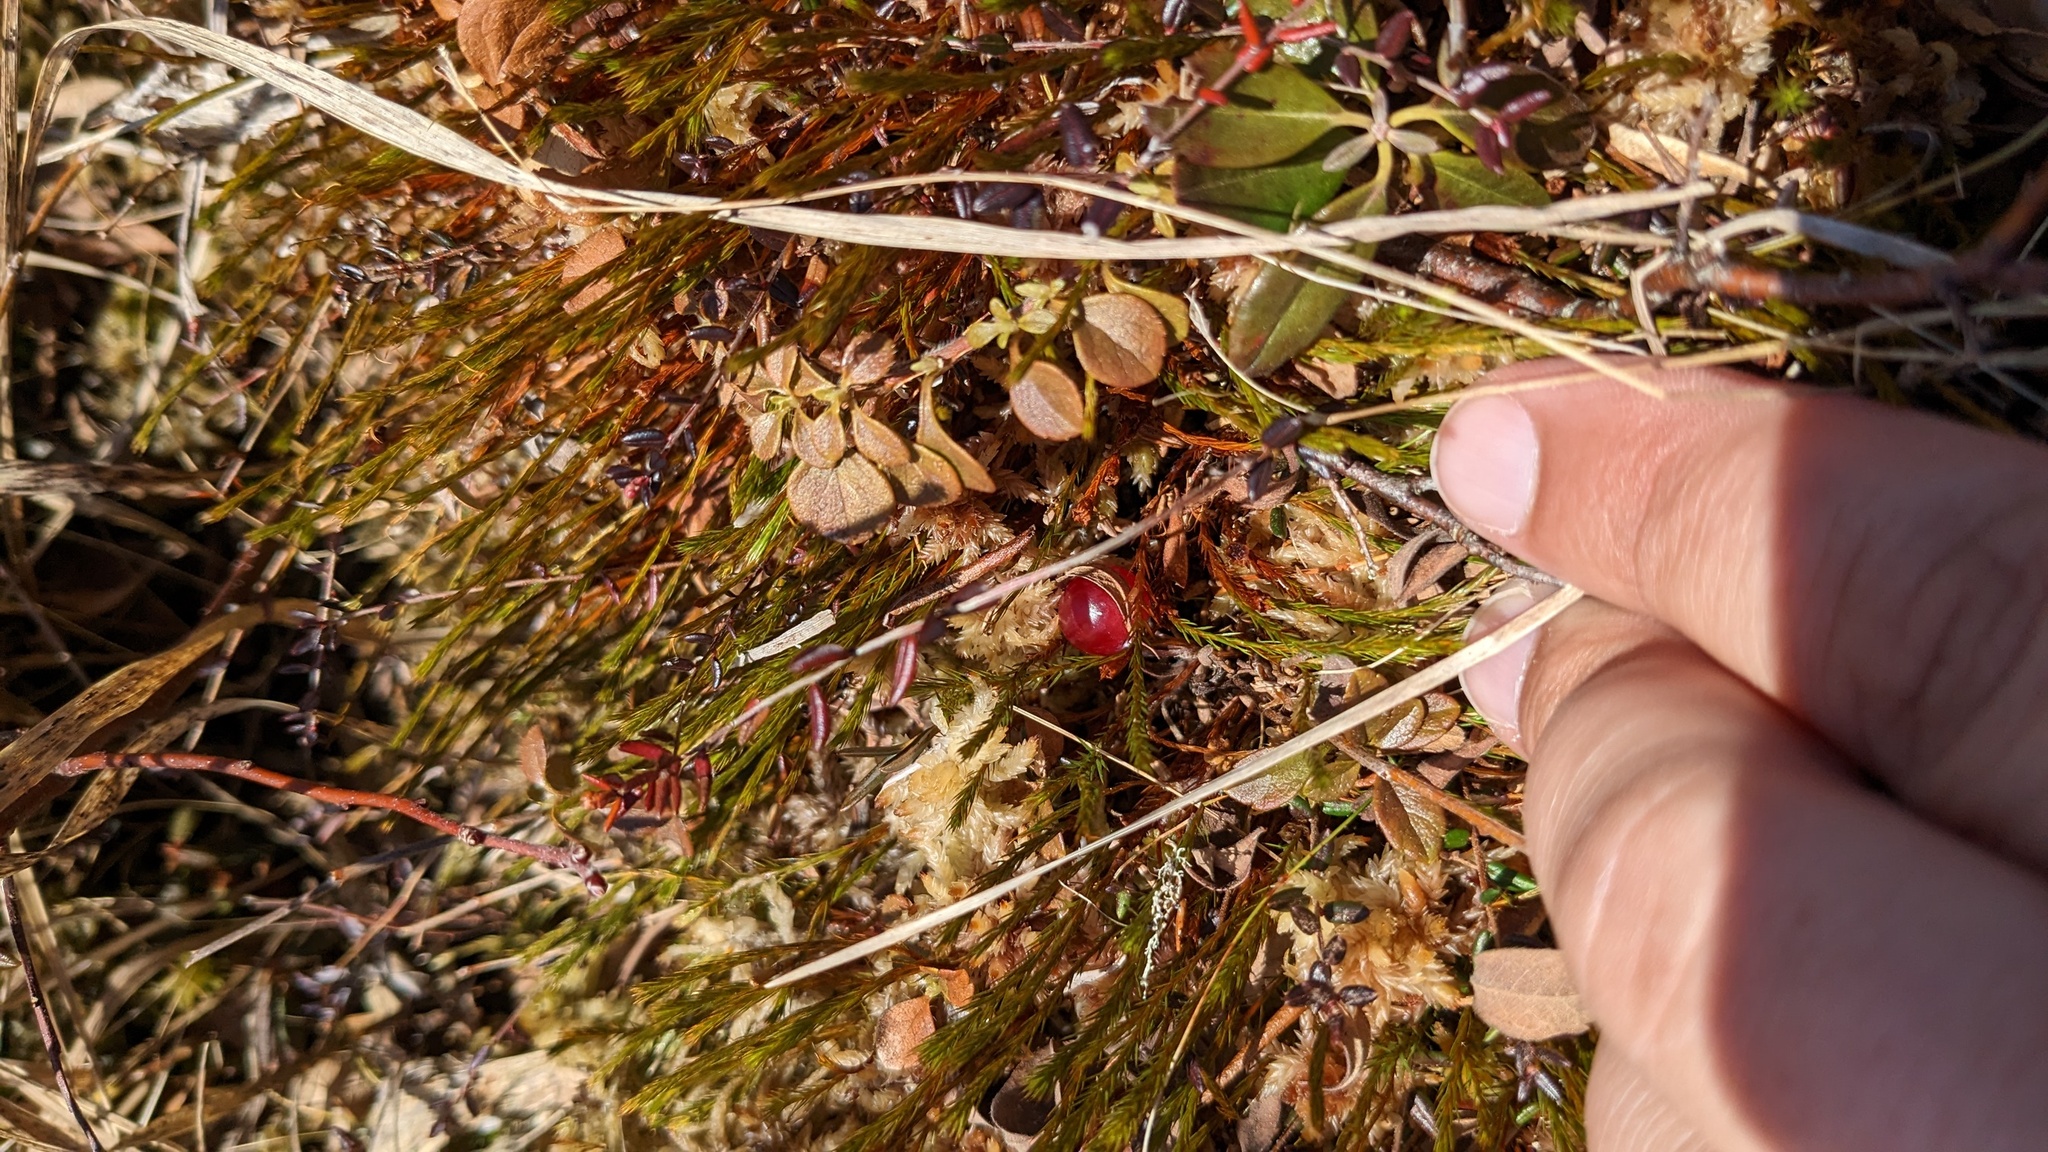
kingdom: Plantae
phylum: Tracheophyta
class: Magnoliopsida
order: Ericales
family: Ericaceae
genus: Vaccinium
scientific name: Vaccinium oxycoccos
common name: Cranberry
